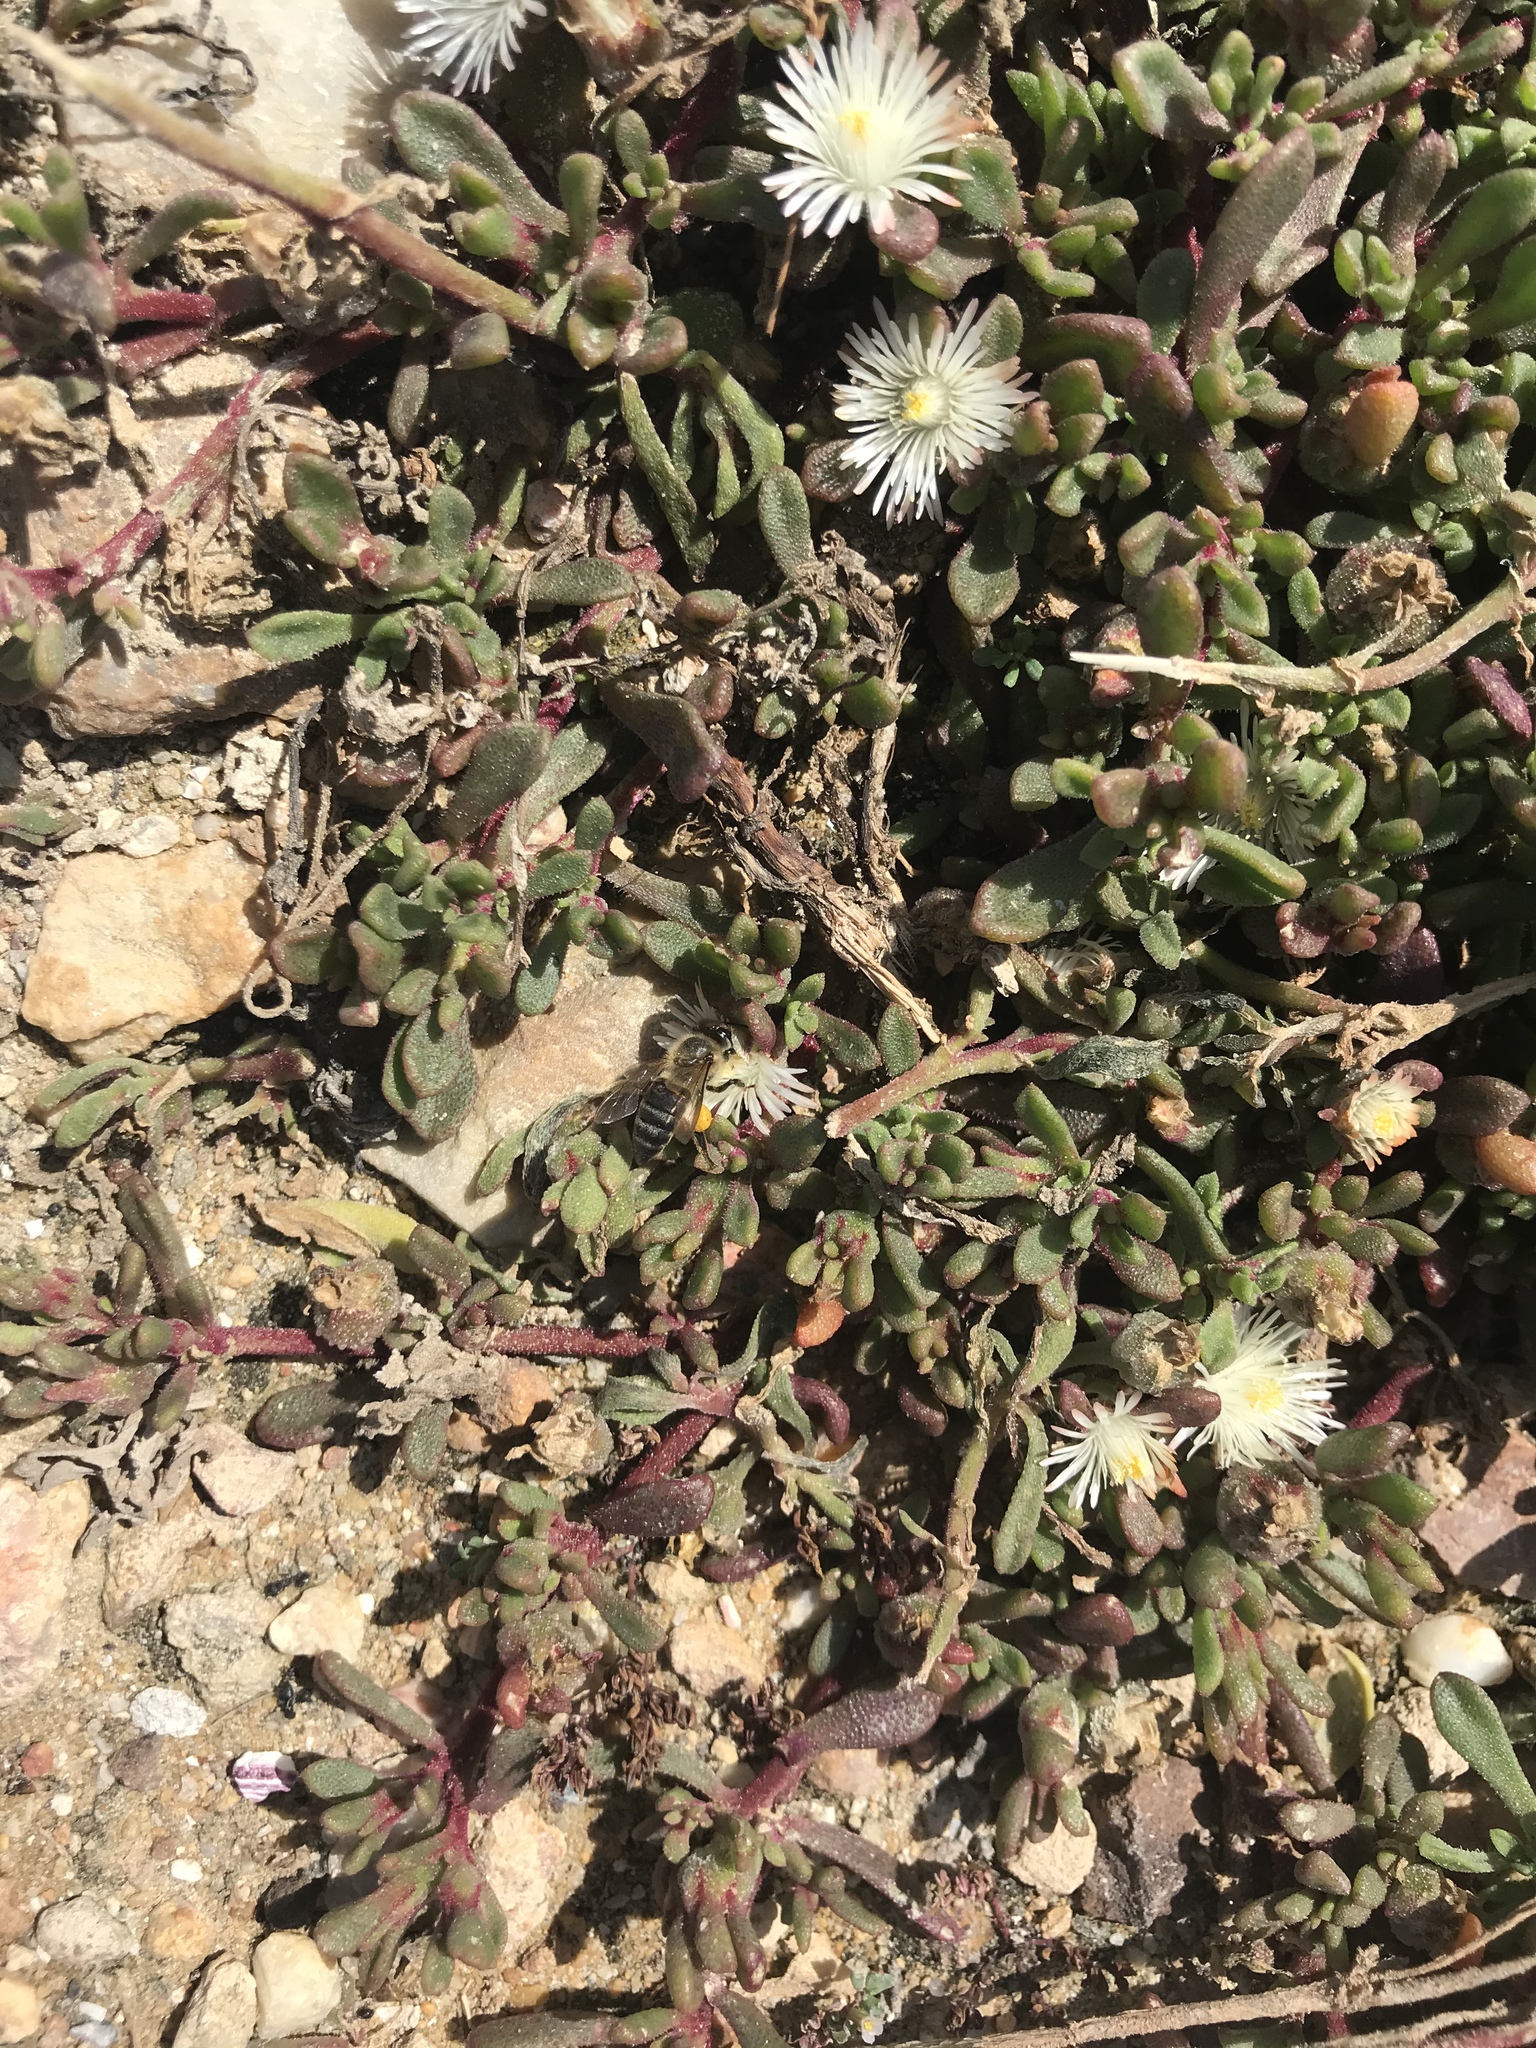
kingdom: Animalia
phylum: Arthropoda
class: Insecta
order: Hymenoptera
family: Apidae
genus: Apis
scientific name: Apis mellifera
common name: Honey bee
